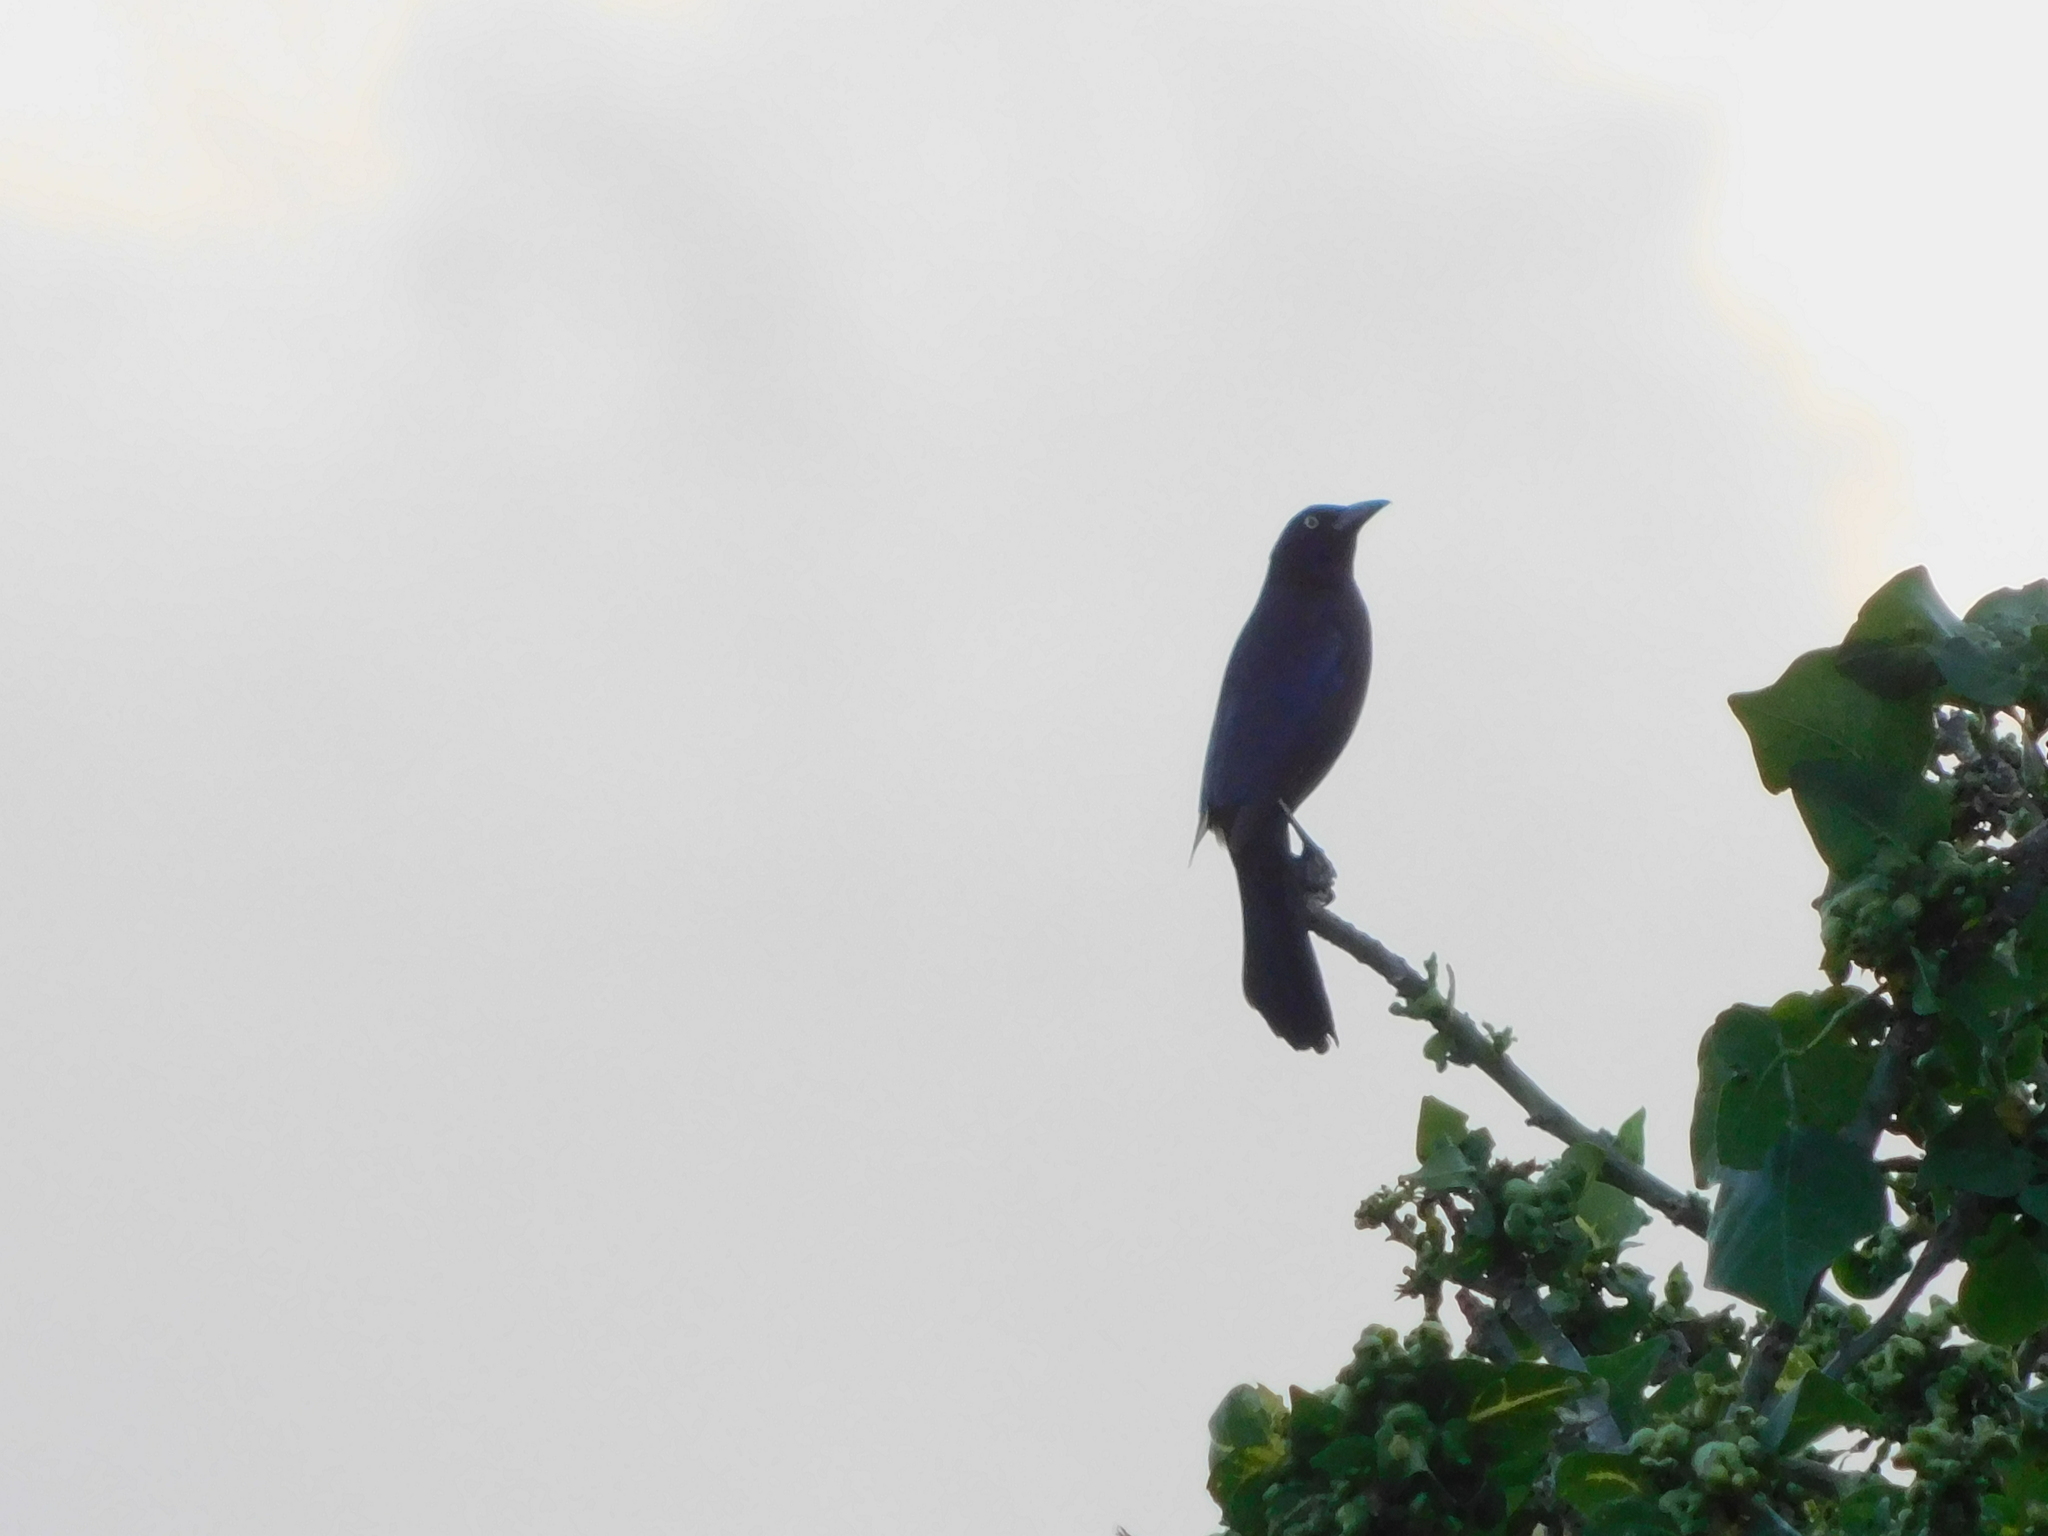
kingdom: Animalia
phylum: Chordata
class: Aves
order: Passeriformes
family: Icteridae
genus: Quiscalus
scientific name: Quiscalus quiscula
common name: Common grackle
